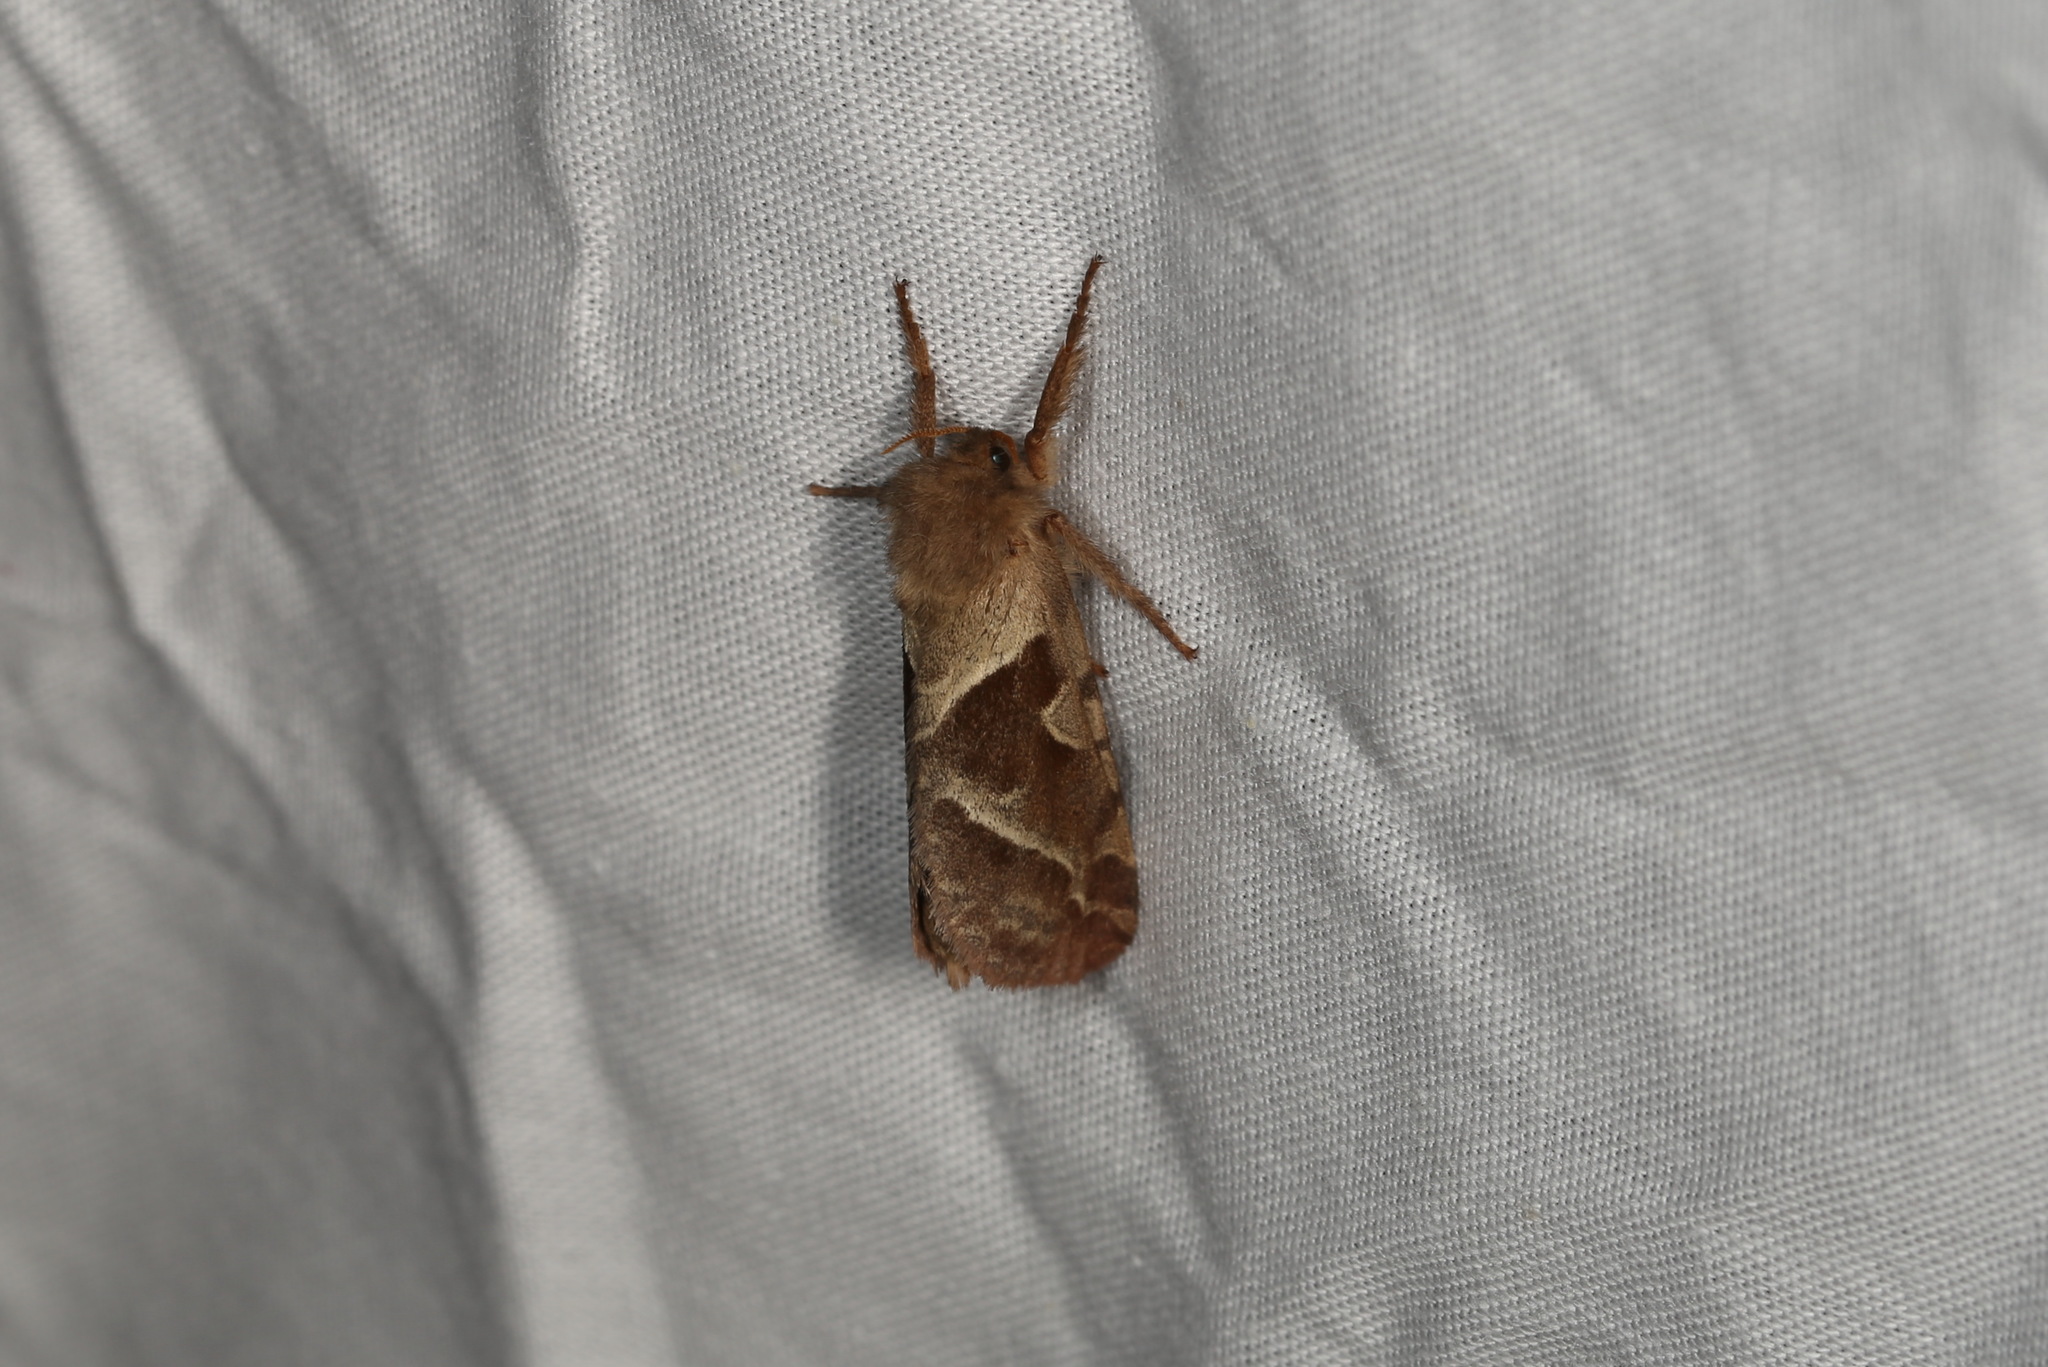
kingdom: Animalia
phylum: Arthropoda
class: Insecta
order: Lepidoptera
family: Hepialidae
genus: Triodia
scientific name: Triodia sylvina
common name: Orange swift
